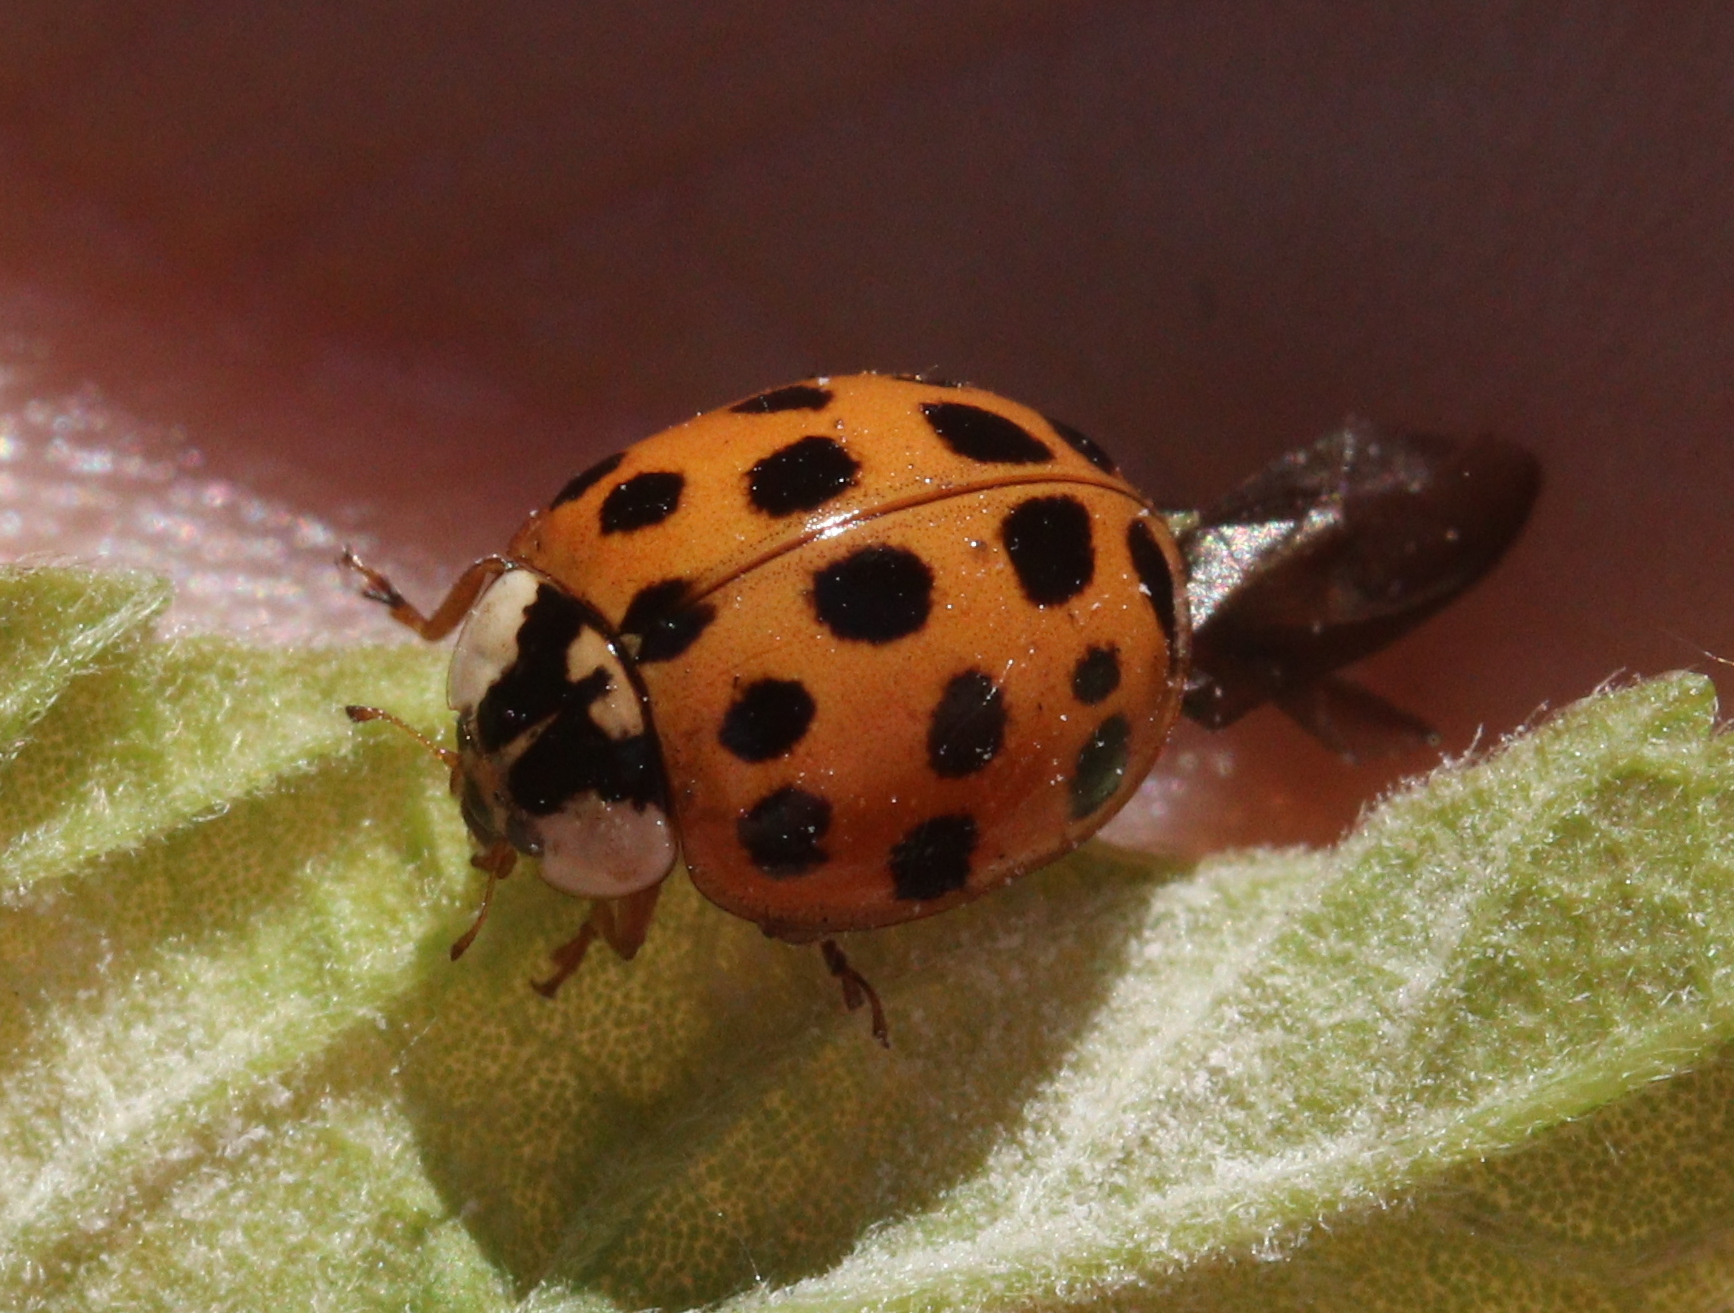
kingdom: Animalia
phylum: Arthropoda
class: Insecta
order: Coleoptera
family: Coccinellidae
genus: Harmonia
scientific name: Harmonia axyridis
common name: Harlequin ladybird
